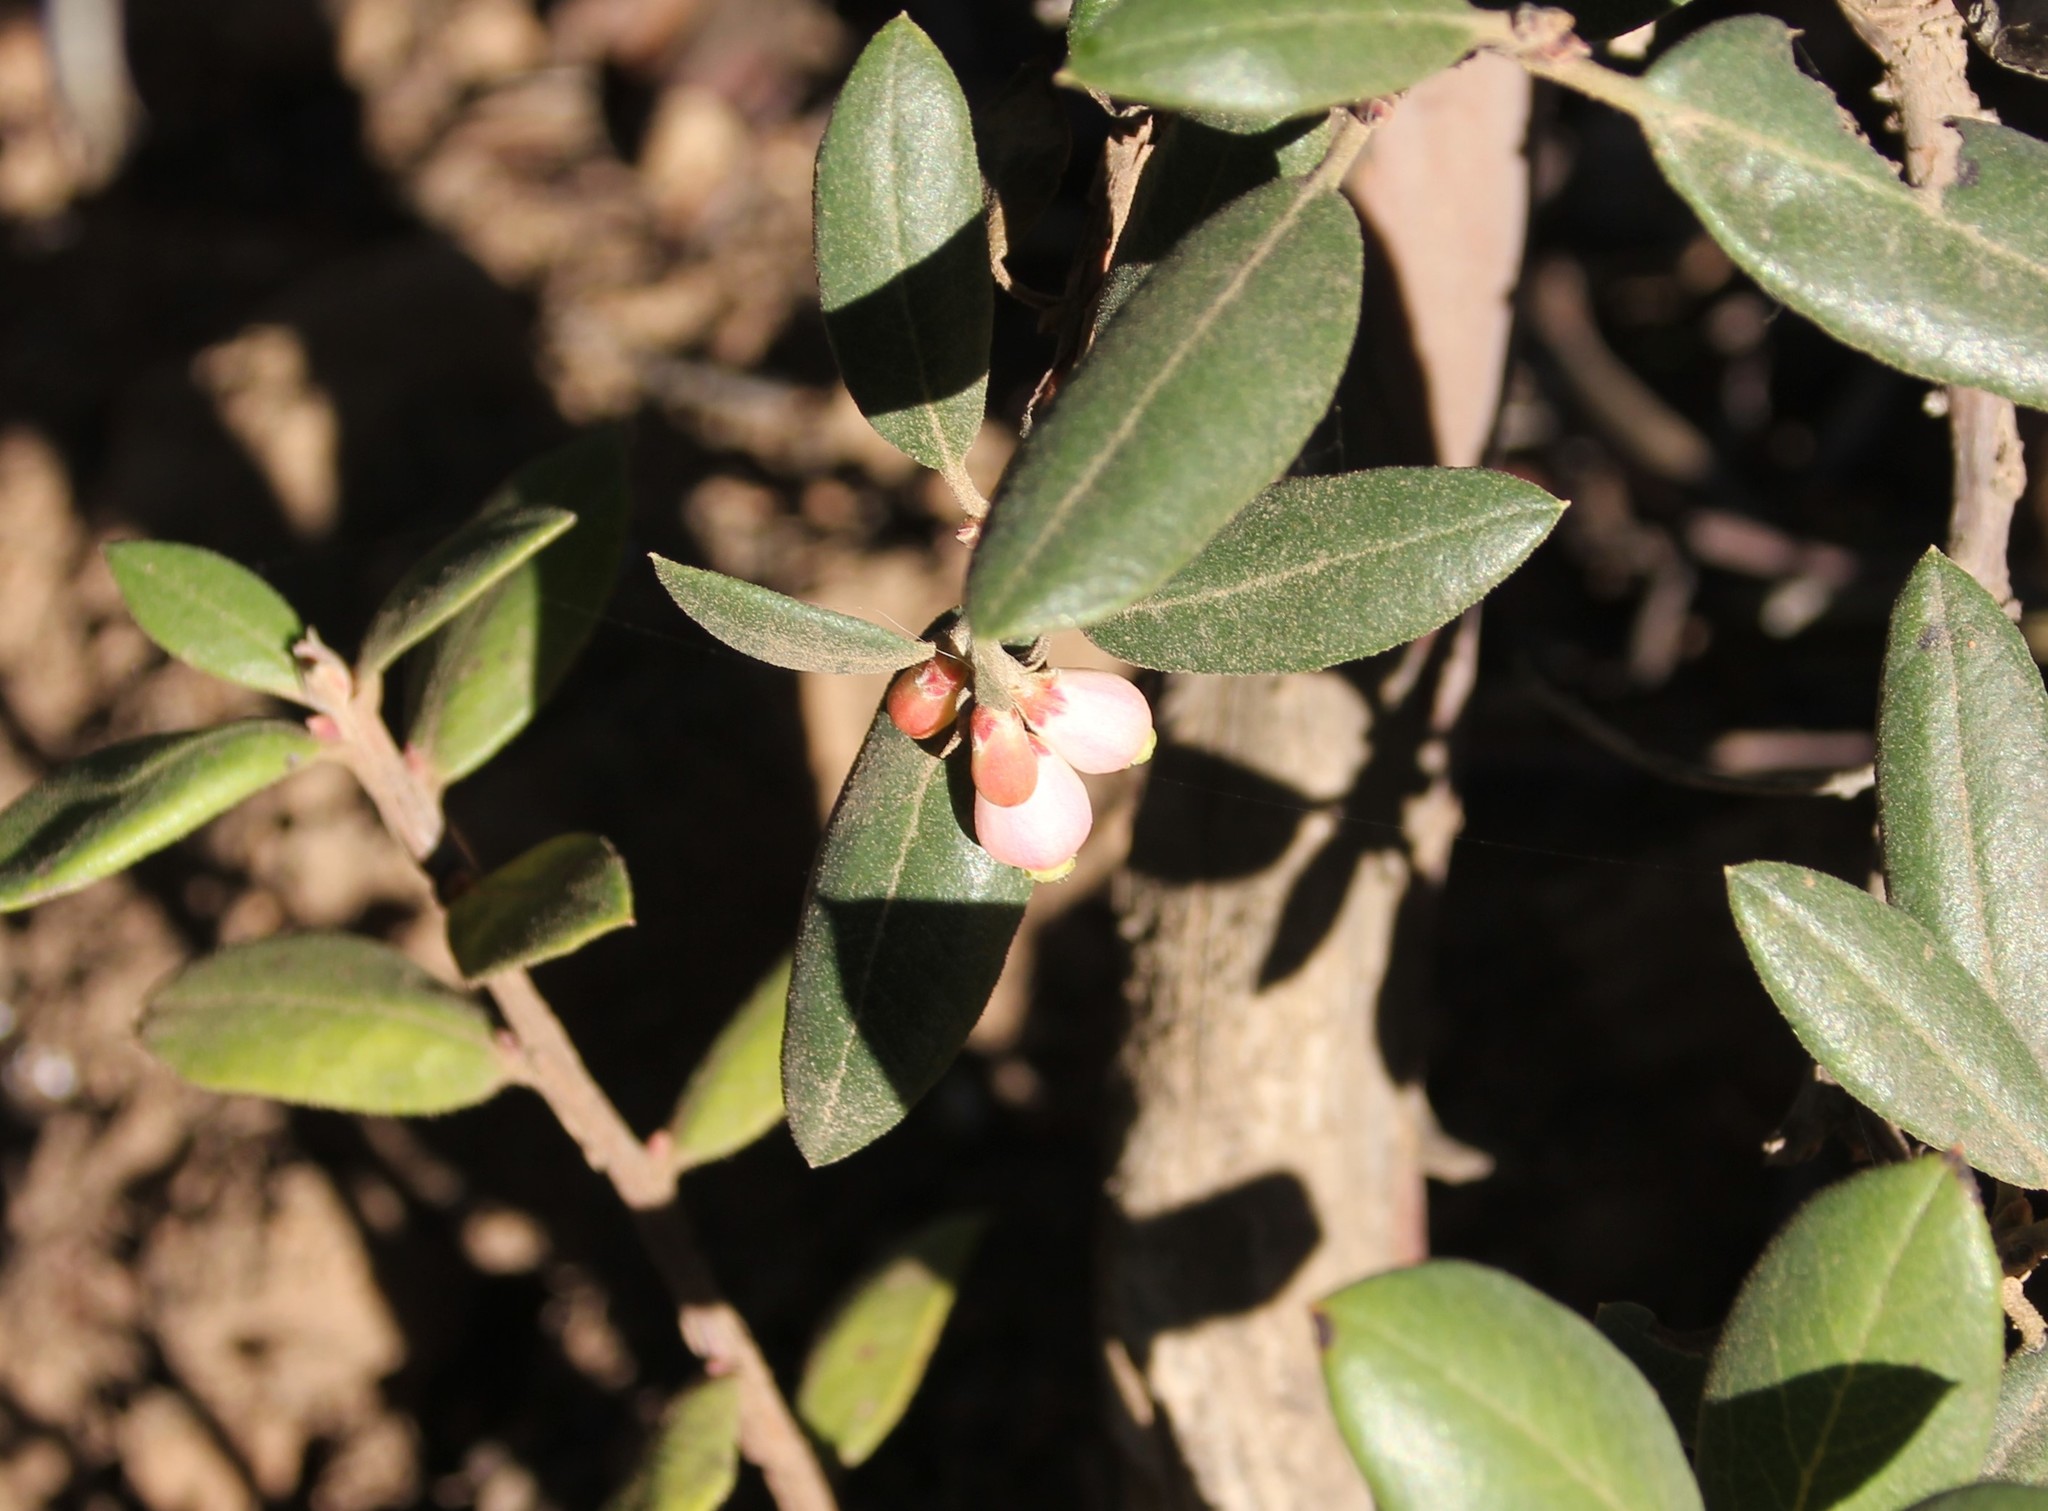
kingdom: Plantae
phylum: Tracheophyta
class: Magnoliopsida
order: Ericales
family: Ericaceae
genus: Arctostaphylos
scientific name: Arctostaphylos bicolor
